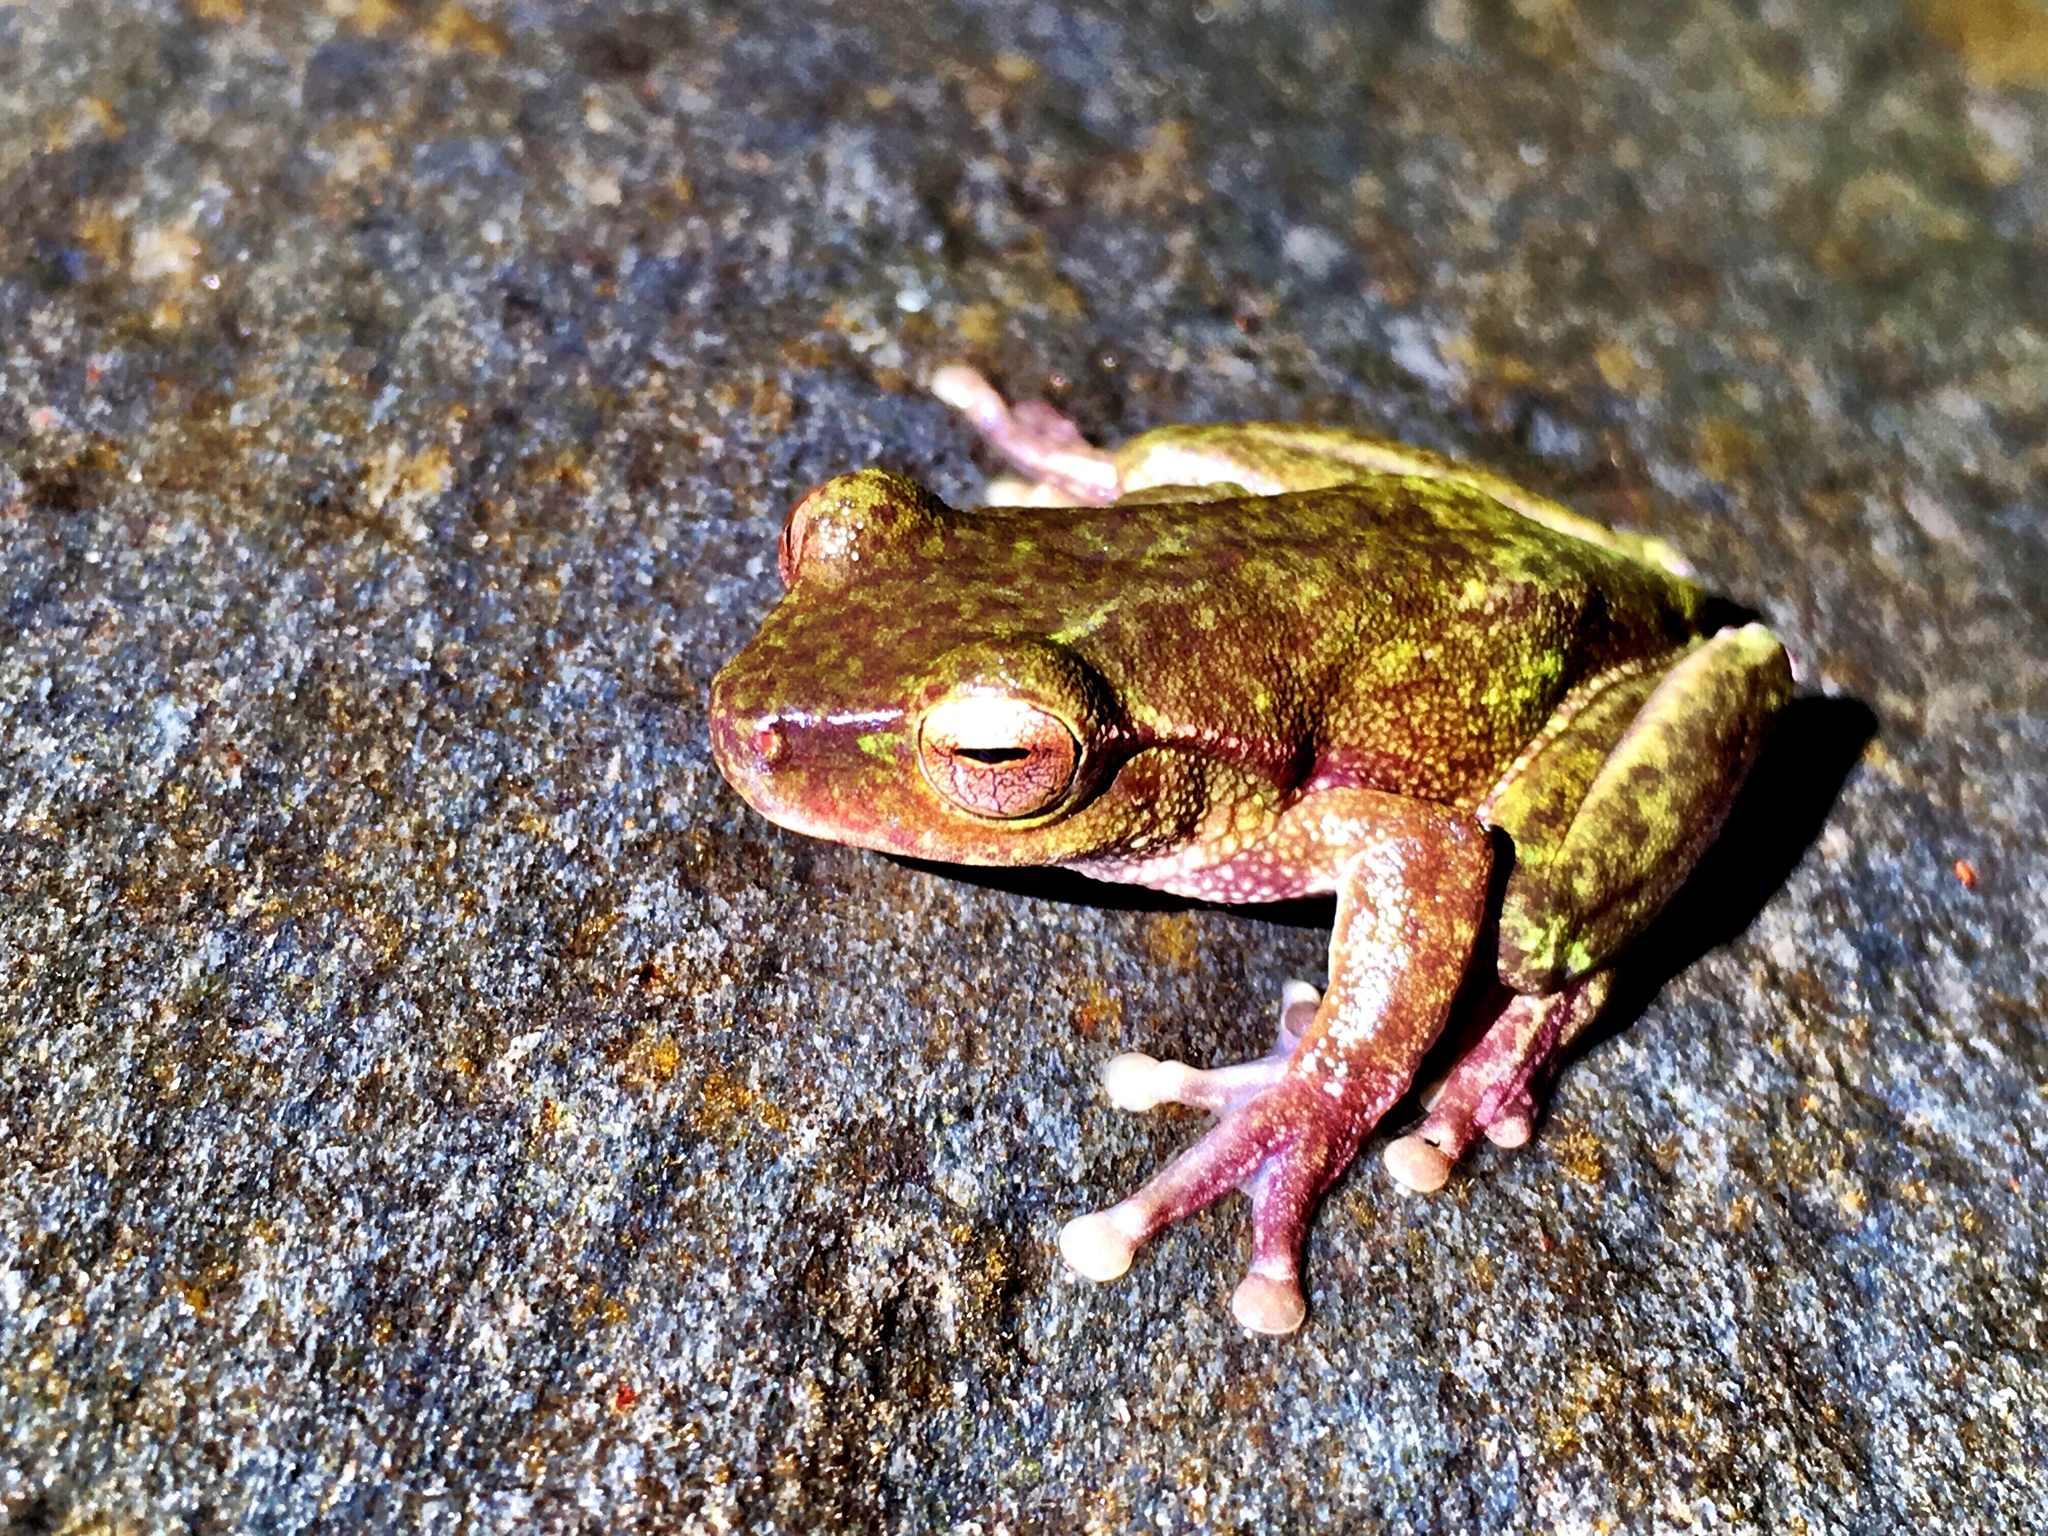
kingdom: Animalia
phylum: Chordata
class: Amphibia
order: Anura
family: Pelodryadidae
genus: Ranoidea
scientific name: Ranoidea barringtonensis
